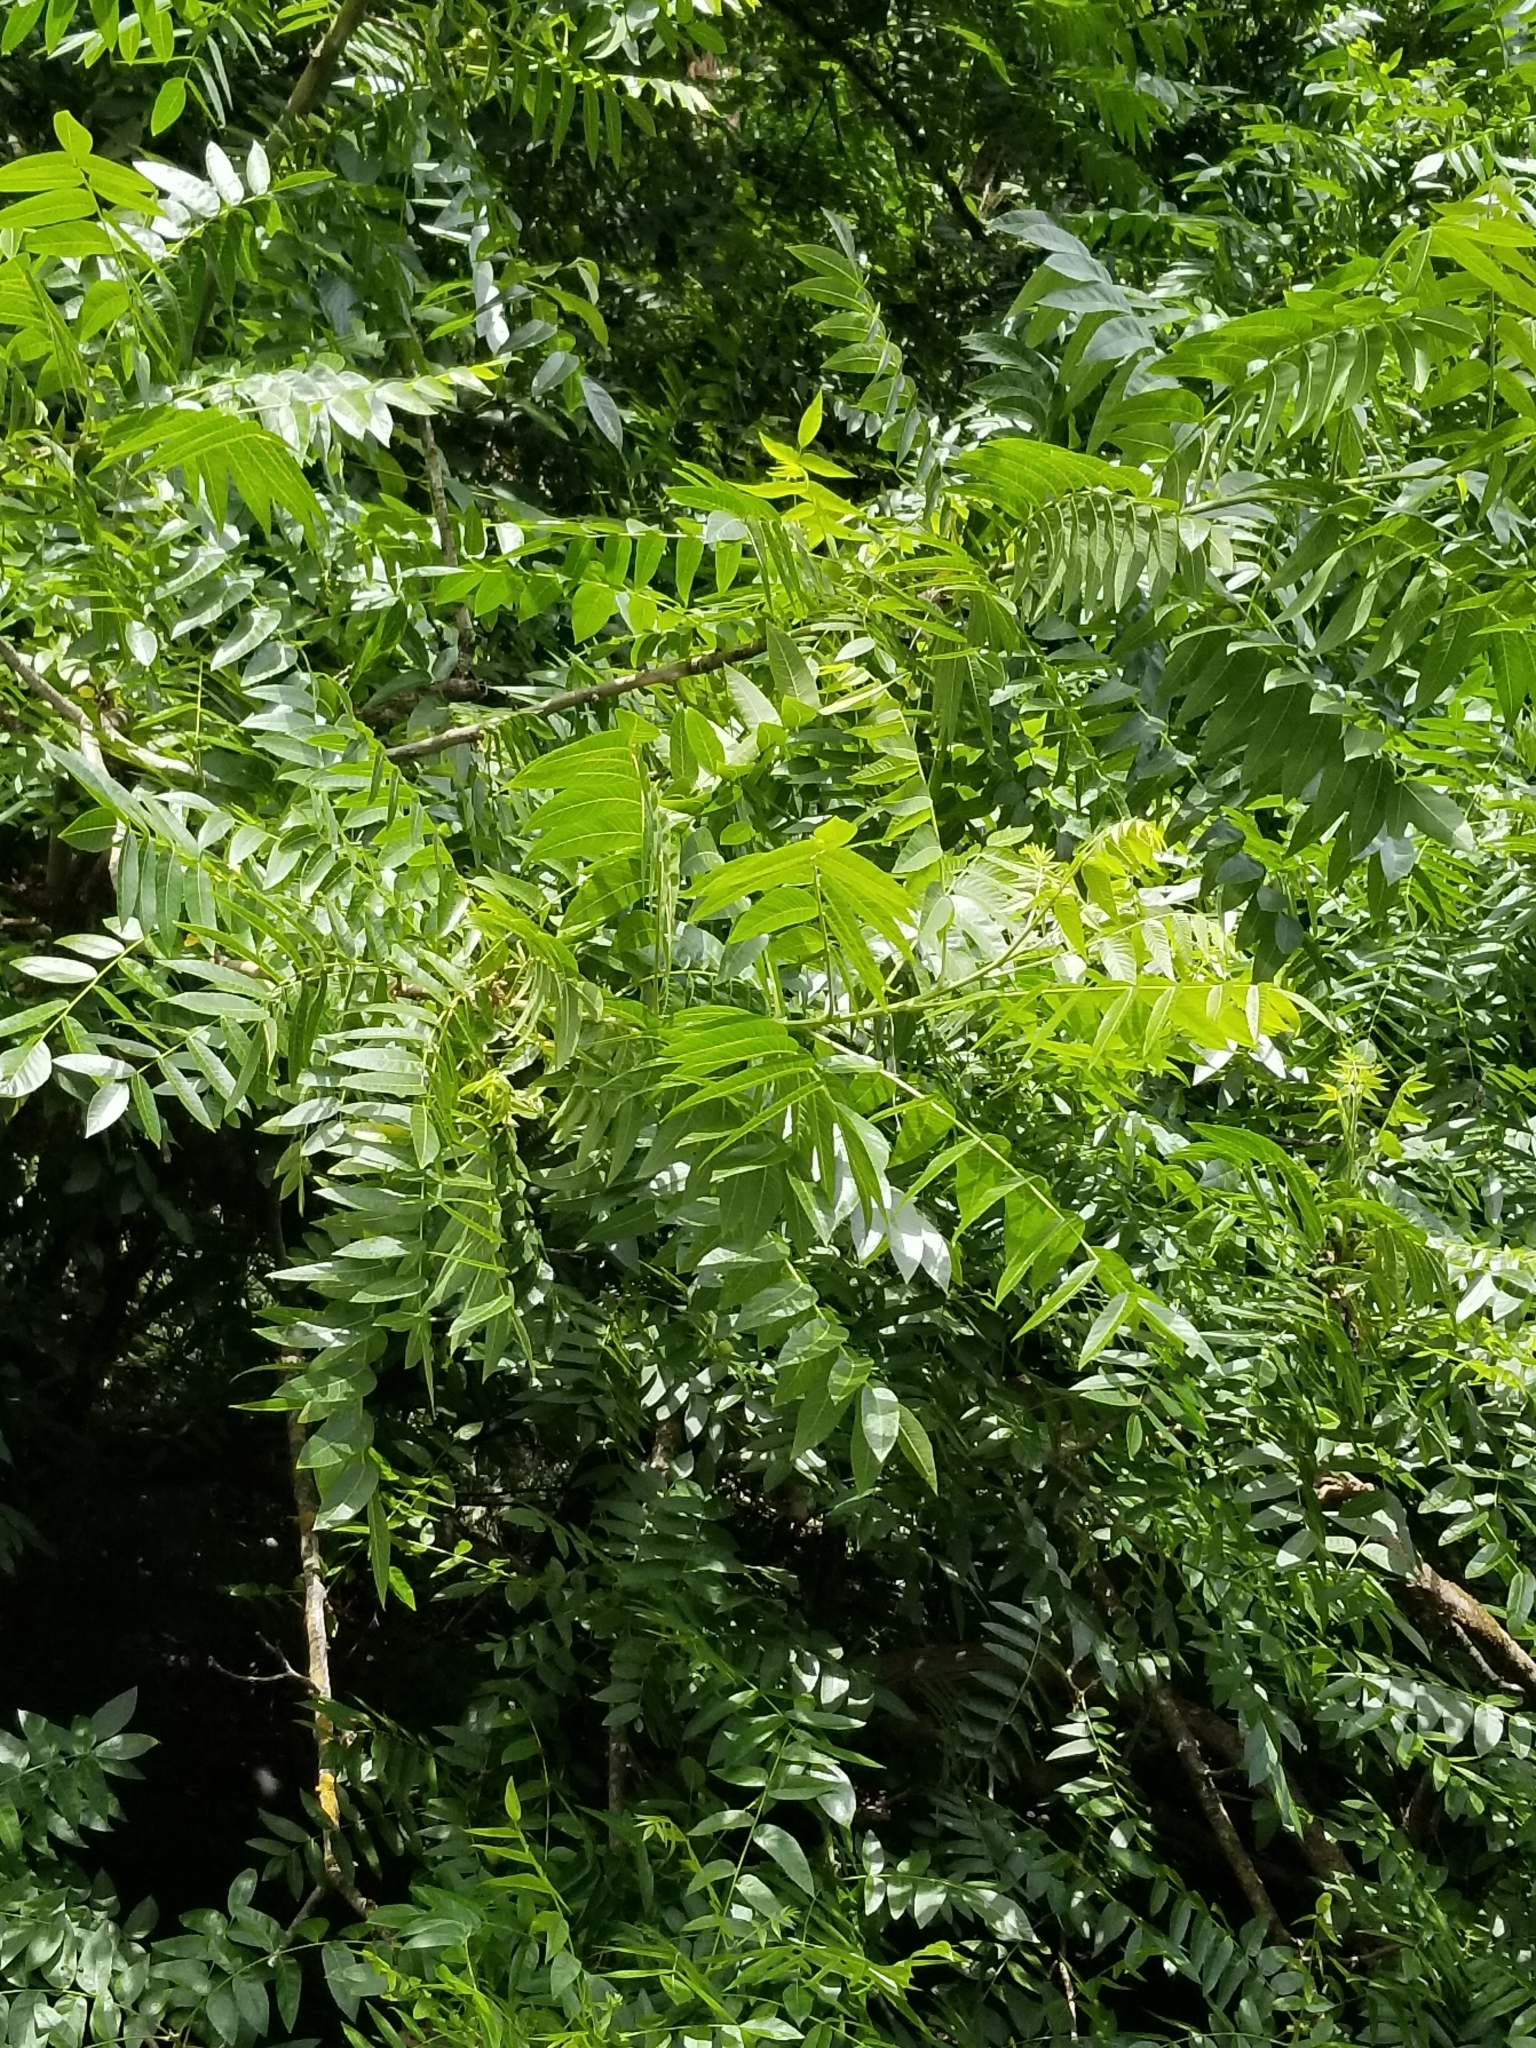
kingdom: Plantae
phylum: Tracheophyta
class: Magnoliopsida
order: Sapindales
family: Simaroubaceae
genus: Ailanthus
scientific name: Ailanthus altissima
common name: Tree-of-heaven
